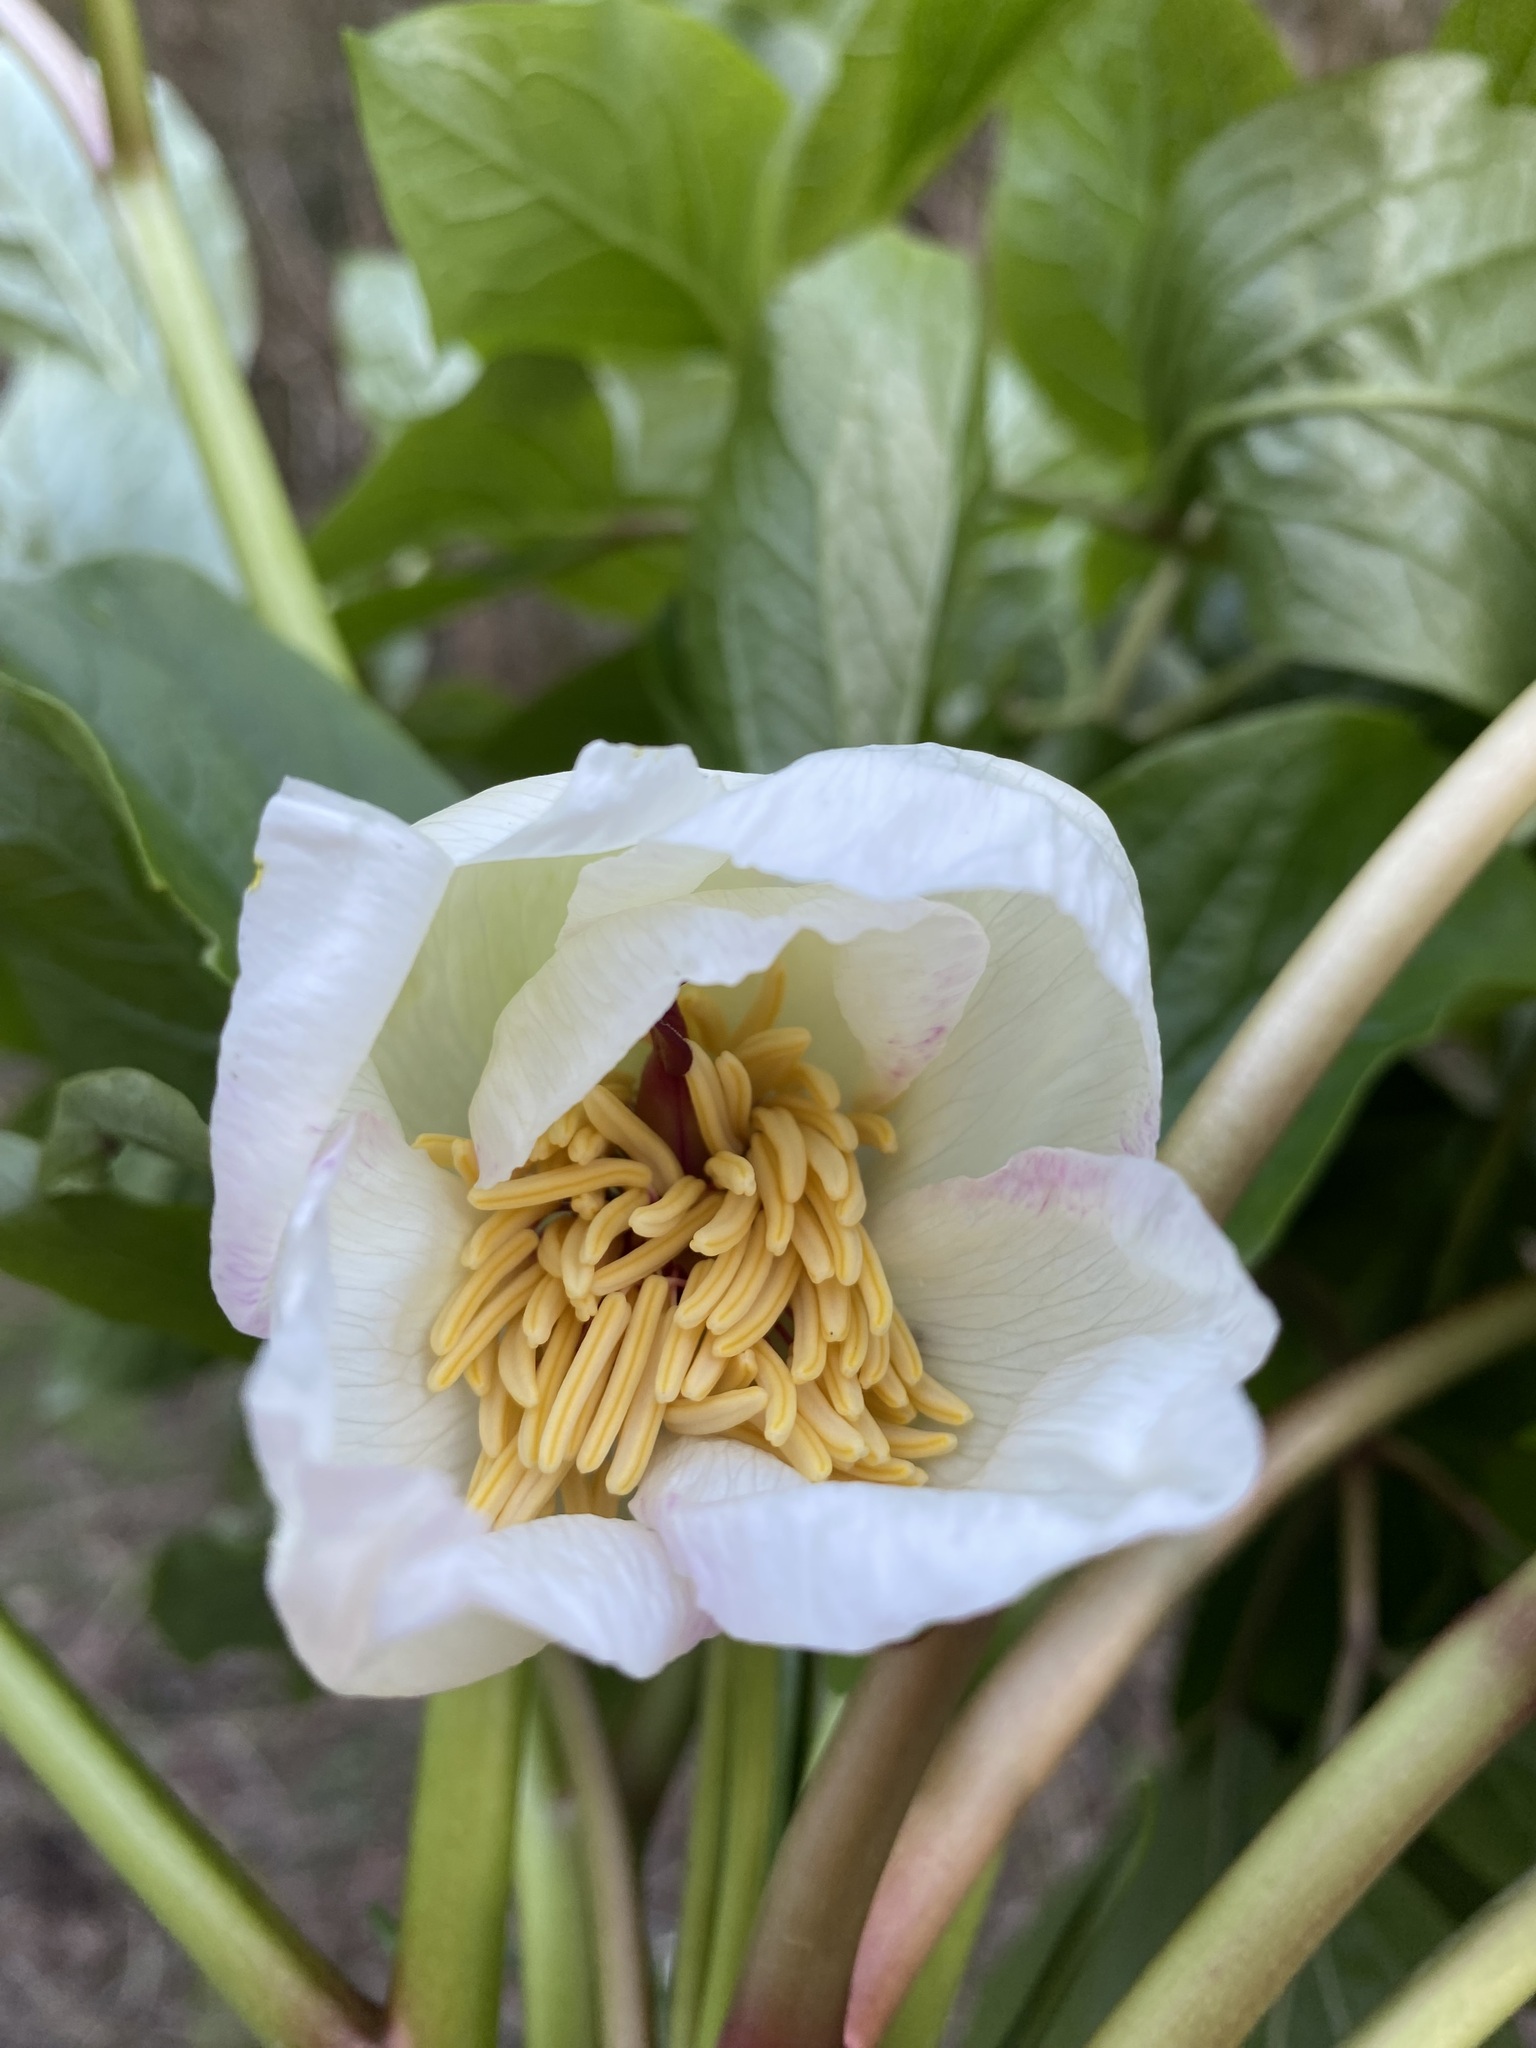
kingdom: Plantae
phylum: Tracheophyta
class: Magnoliopsida
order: Saxifragales
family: Paeoniaceae
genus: Paeonia
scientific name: Paeonia litvinskajae
